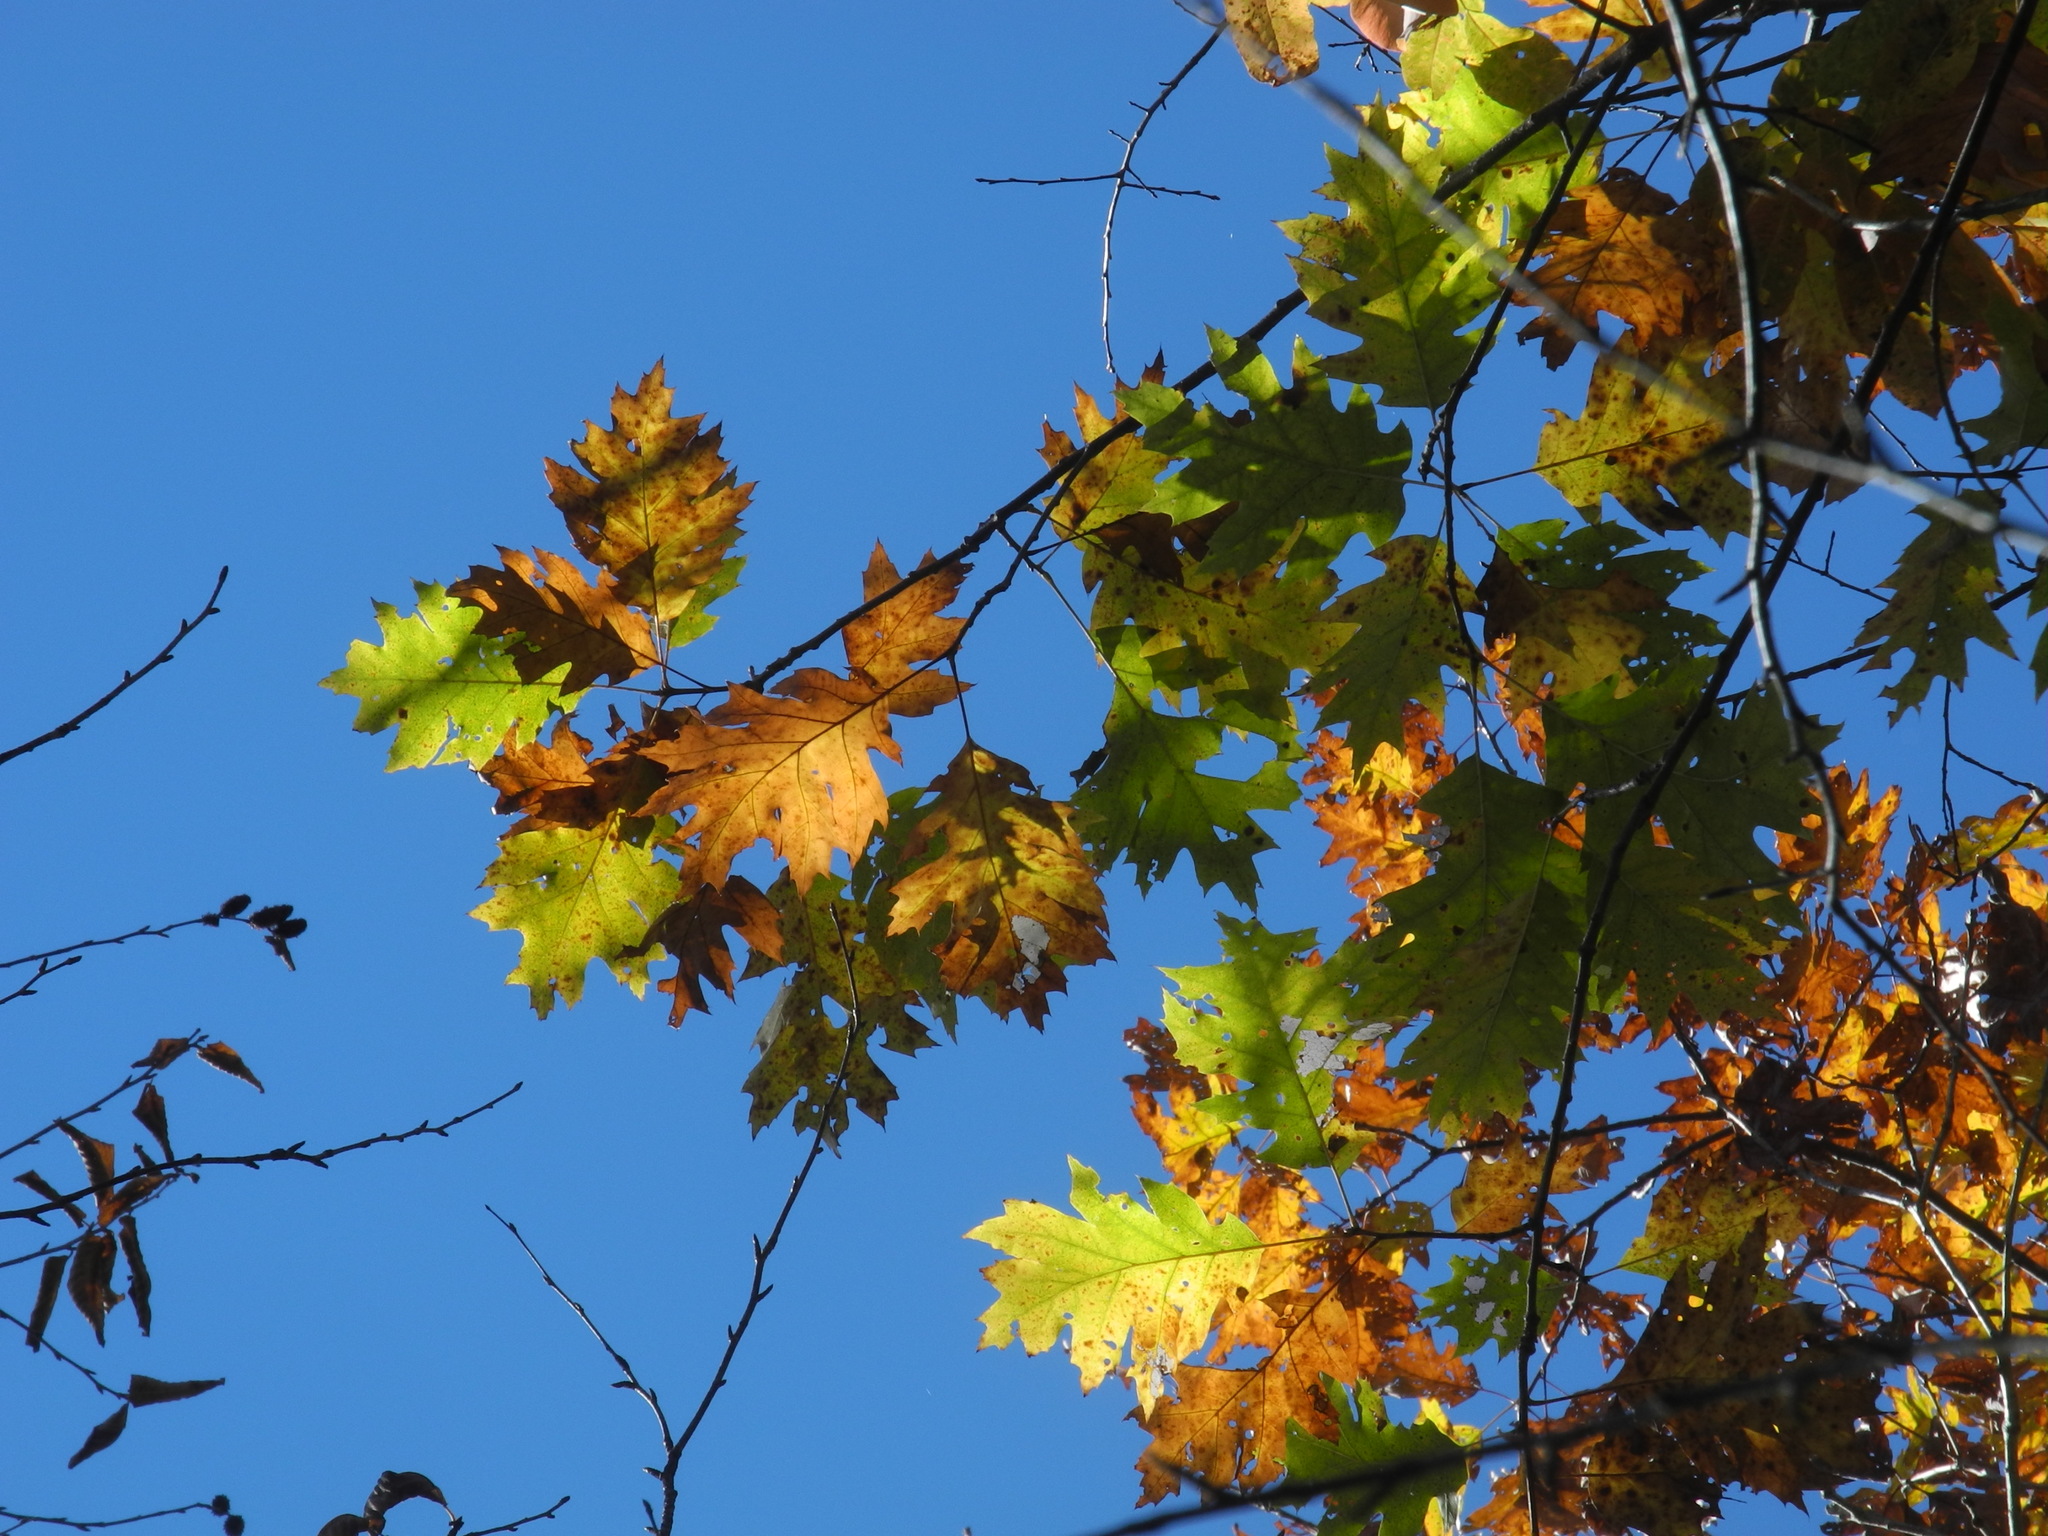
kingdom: Plantae
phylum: Tracheophyta
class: Magnoliopsida
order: Fagales
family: Fagaceae
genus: Quercus
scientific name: Quercus rubra
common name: Red oak
